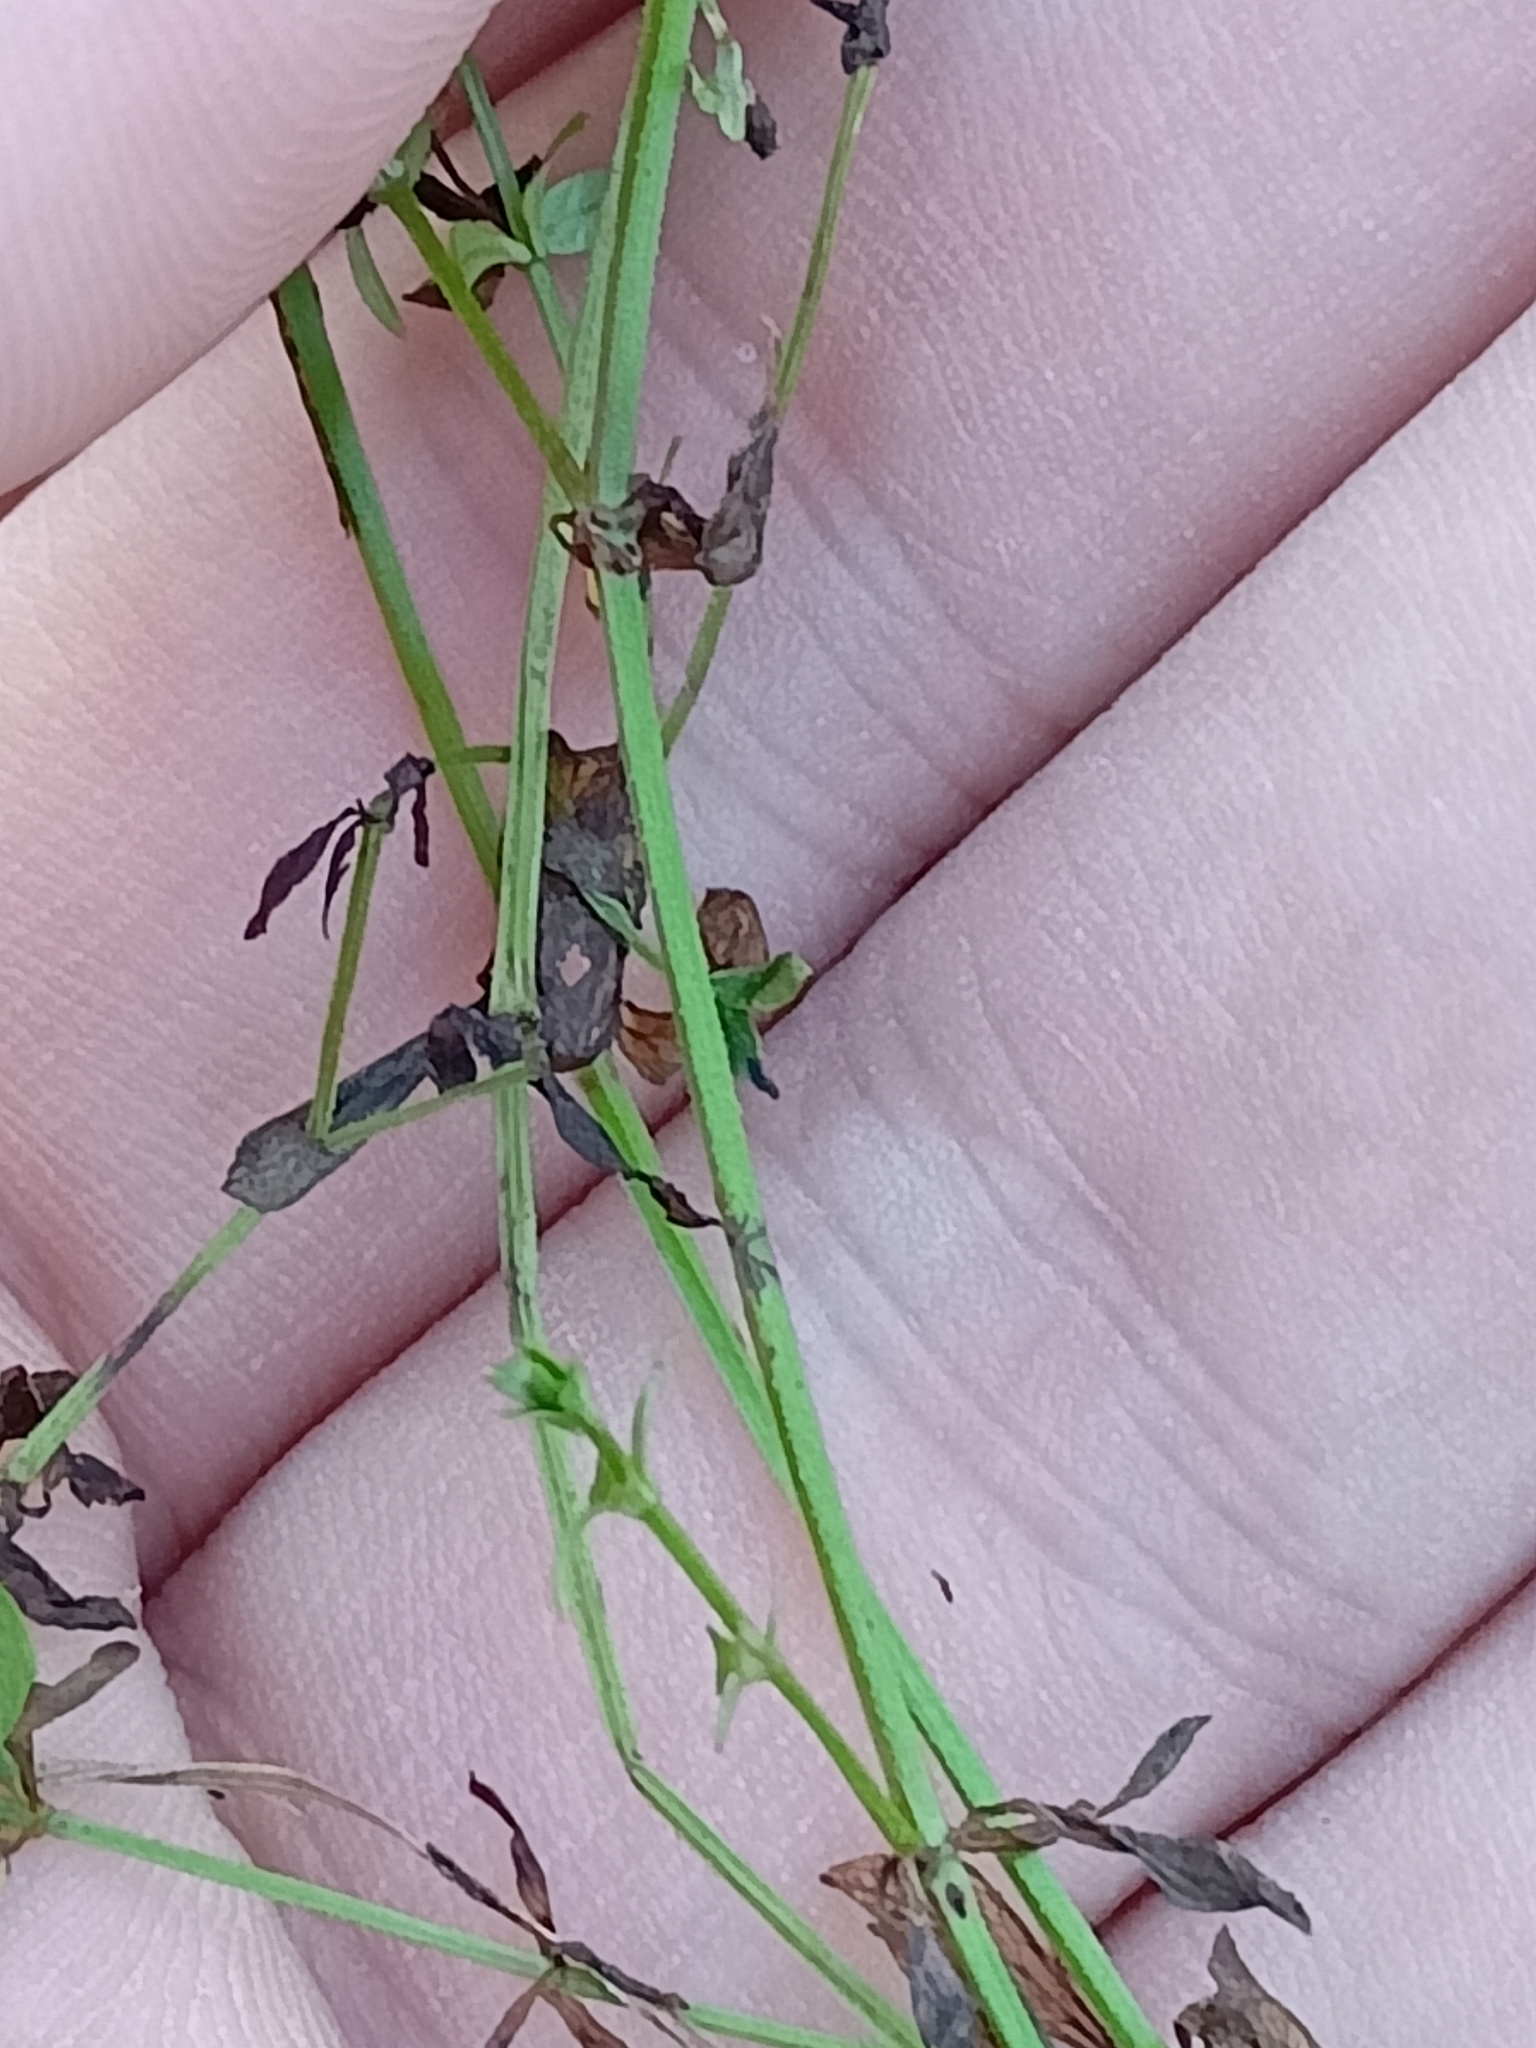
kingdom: Plantae
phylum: Tracheophyta
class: Magnoliopsida
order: Gentianales
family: Rubiaceae
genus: Galium
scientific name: Galium palustre
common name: Common marsh-bedstraw
